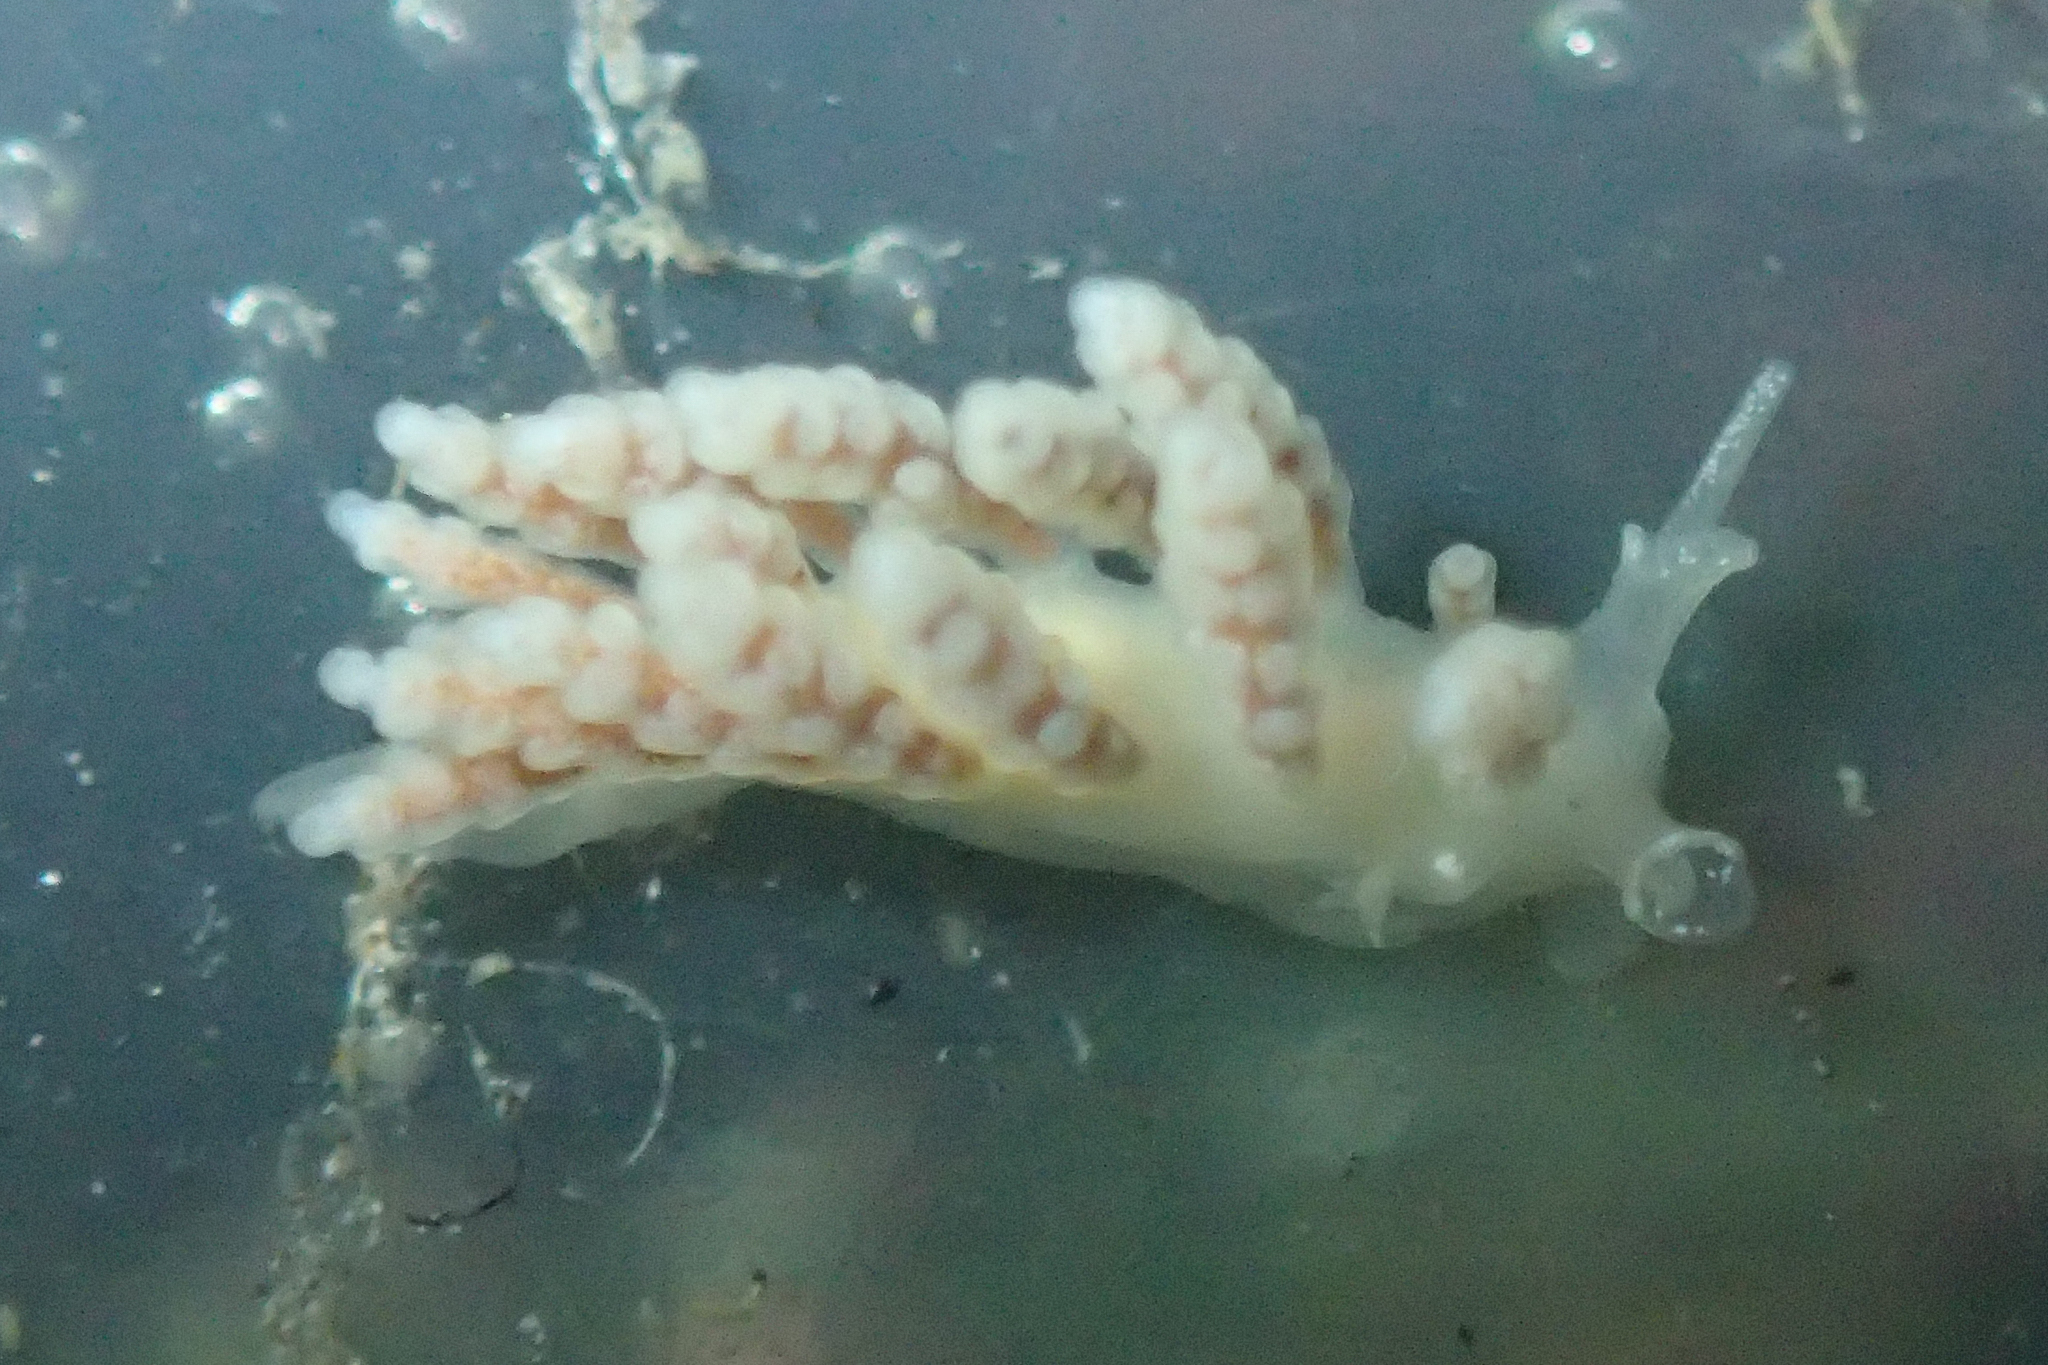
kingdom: Animalia
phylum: Mollusca
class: Gastropoda
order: Nudibranchia
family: Dotidae
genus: Doto
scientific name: Doto amyra
